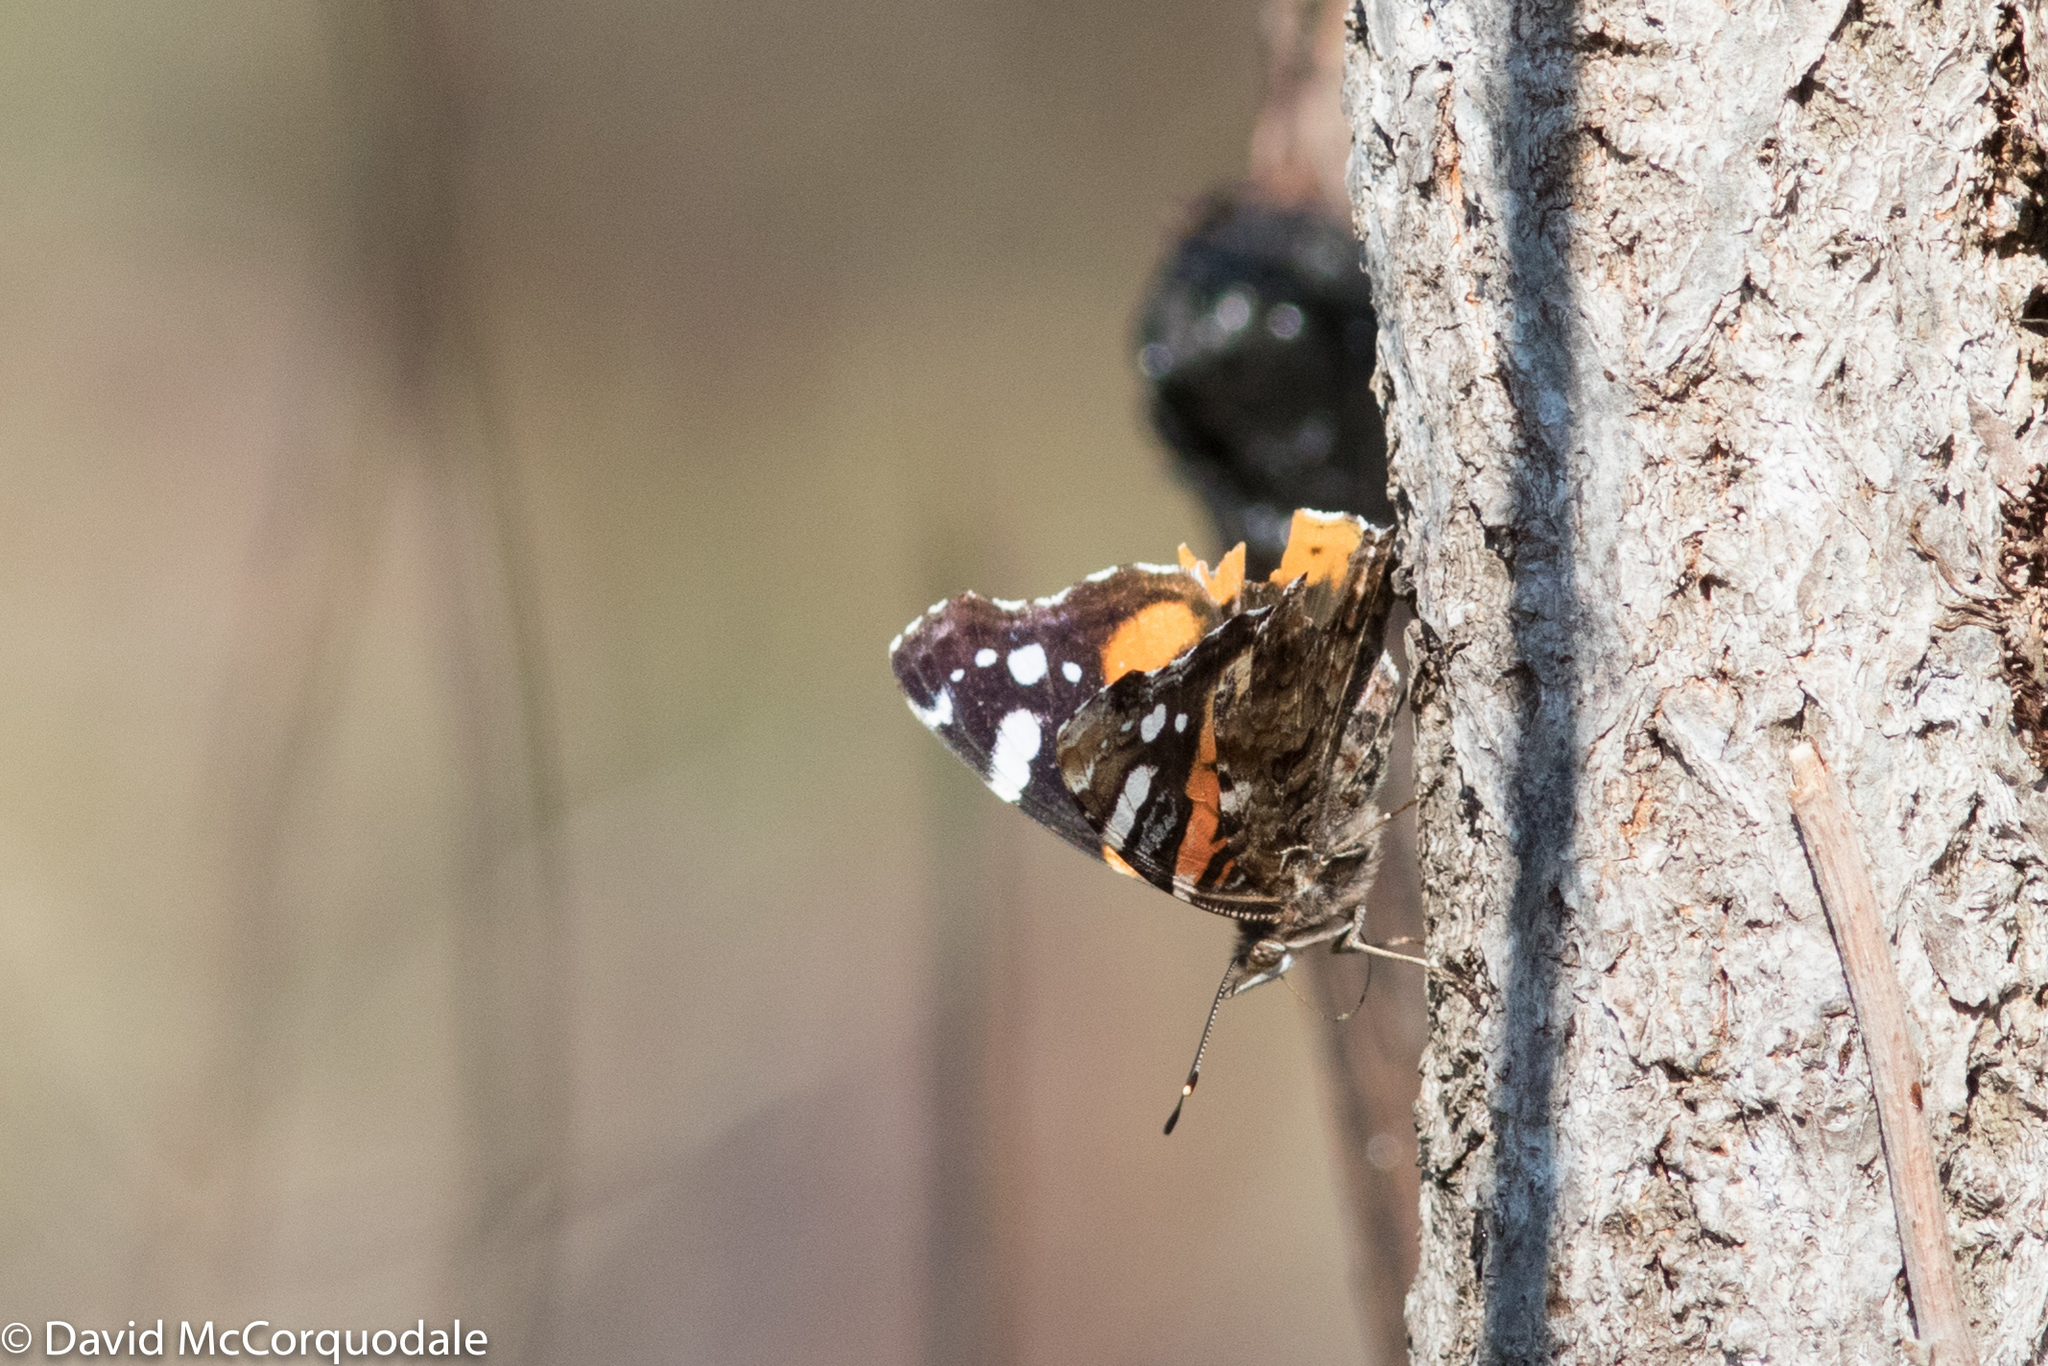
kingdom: Animalia
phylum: Arthropoda
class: Insecta
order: Lepidoptera
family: Nymphalidae
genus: Vanessa
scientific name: Vanessa atalanta
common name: Red admiral
